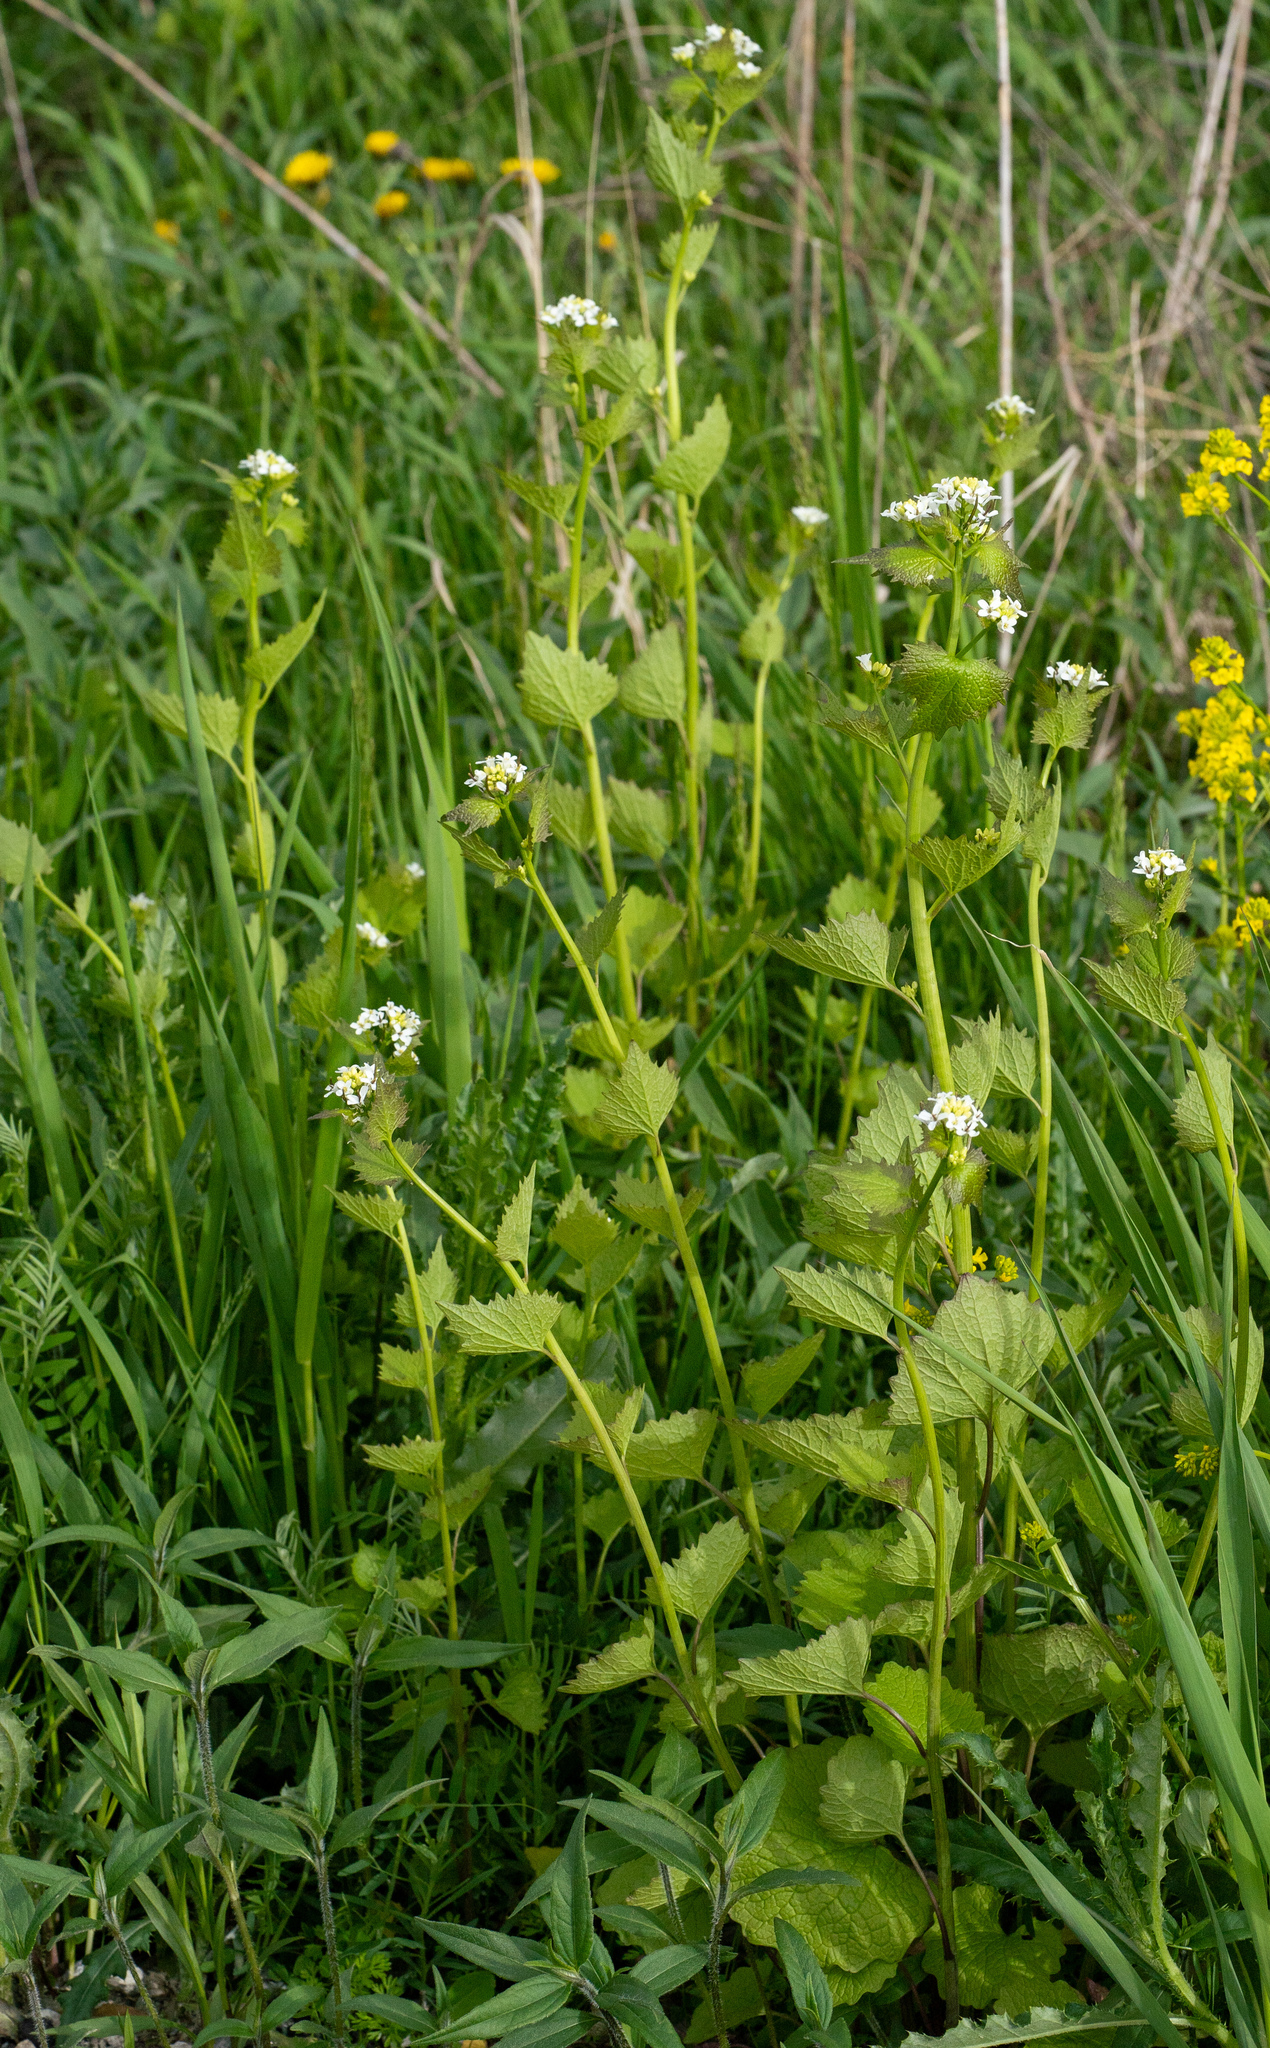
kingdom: Plantae
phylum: Tracheophyta
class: Magnoliopsida
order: Brassicales
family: Brassicaceae
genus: Alliaria
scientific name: Alliaria petiolata
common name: Garlic mustard
